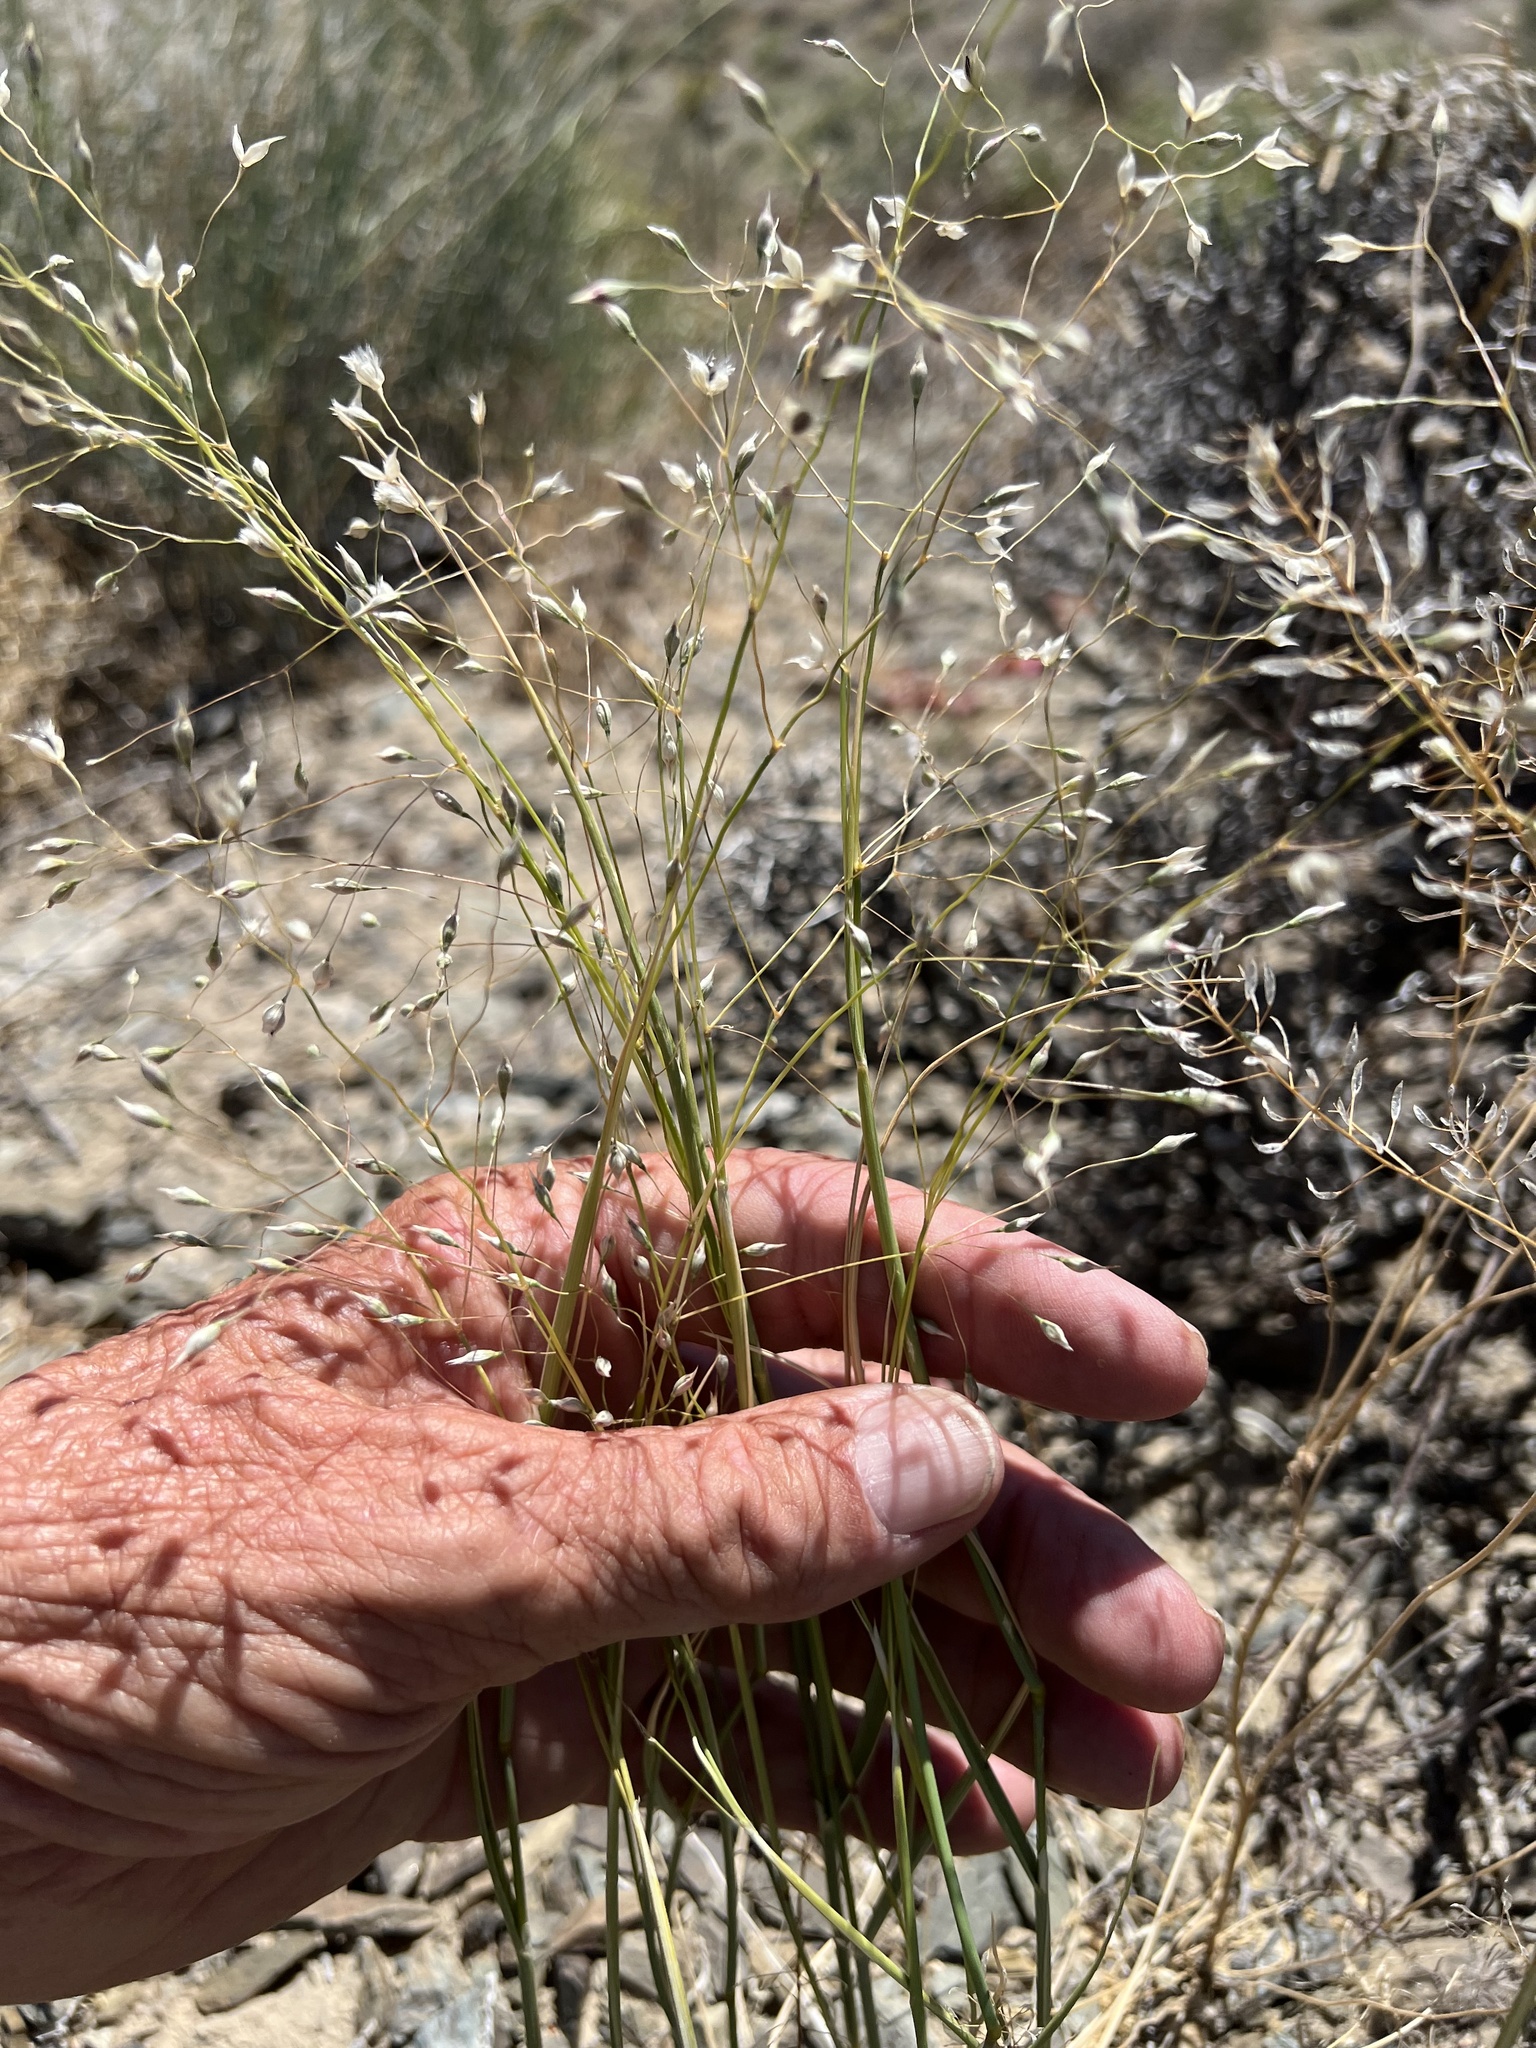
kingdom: Plantae
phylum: Tracheophyta
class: Liliopsida
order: Poales
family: Poaceae
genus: Eriocoma
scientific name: Eriocoma hymenoides
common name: Indian mountain ricegrass
